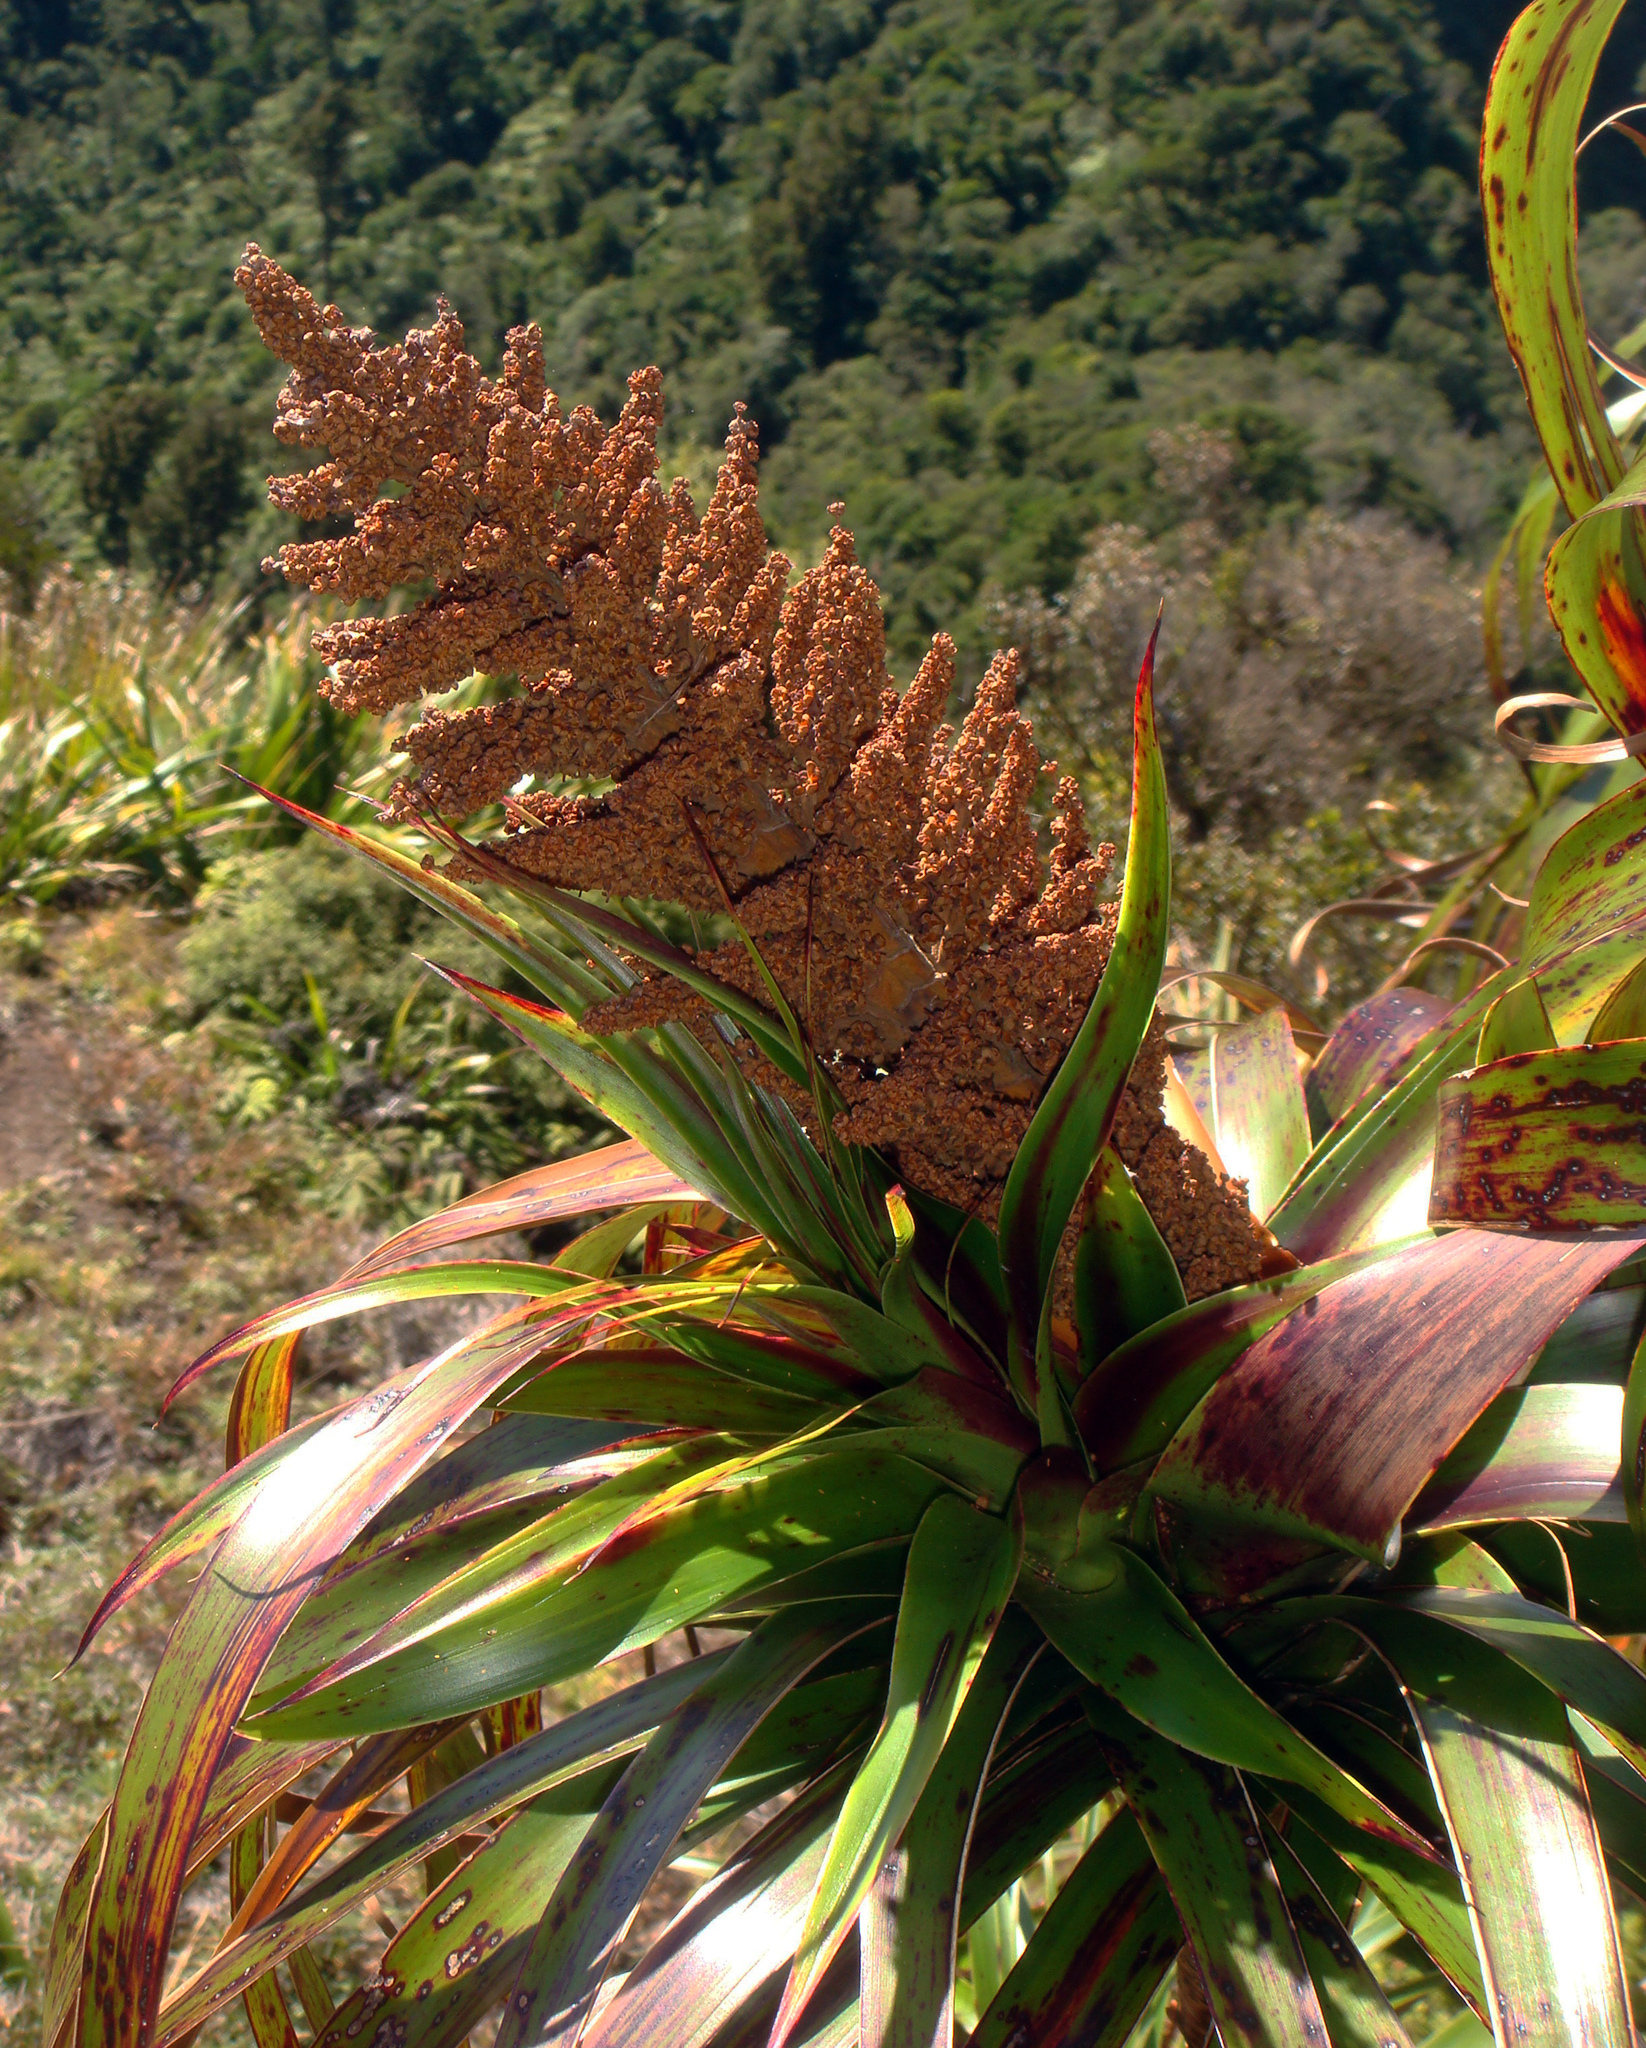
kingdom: Plantae
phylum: Tracheophyta
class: Magnoliopsida
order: Ericales
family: Ericaceae
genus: Dracophyllum
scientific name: Dracophyllum traversii
